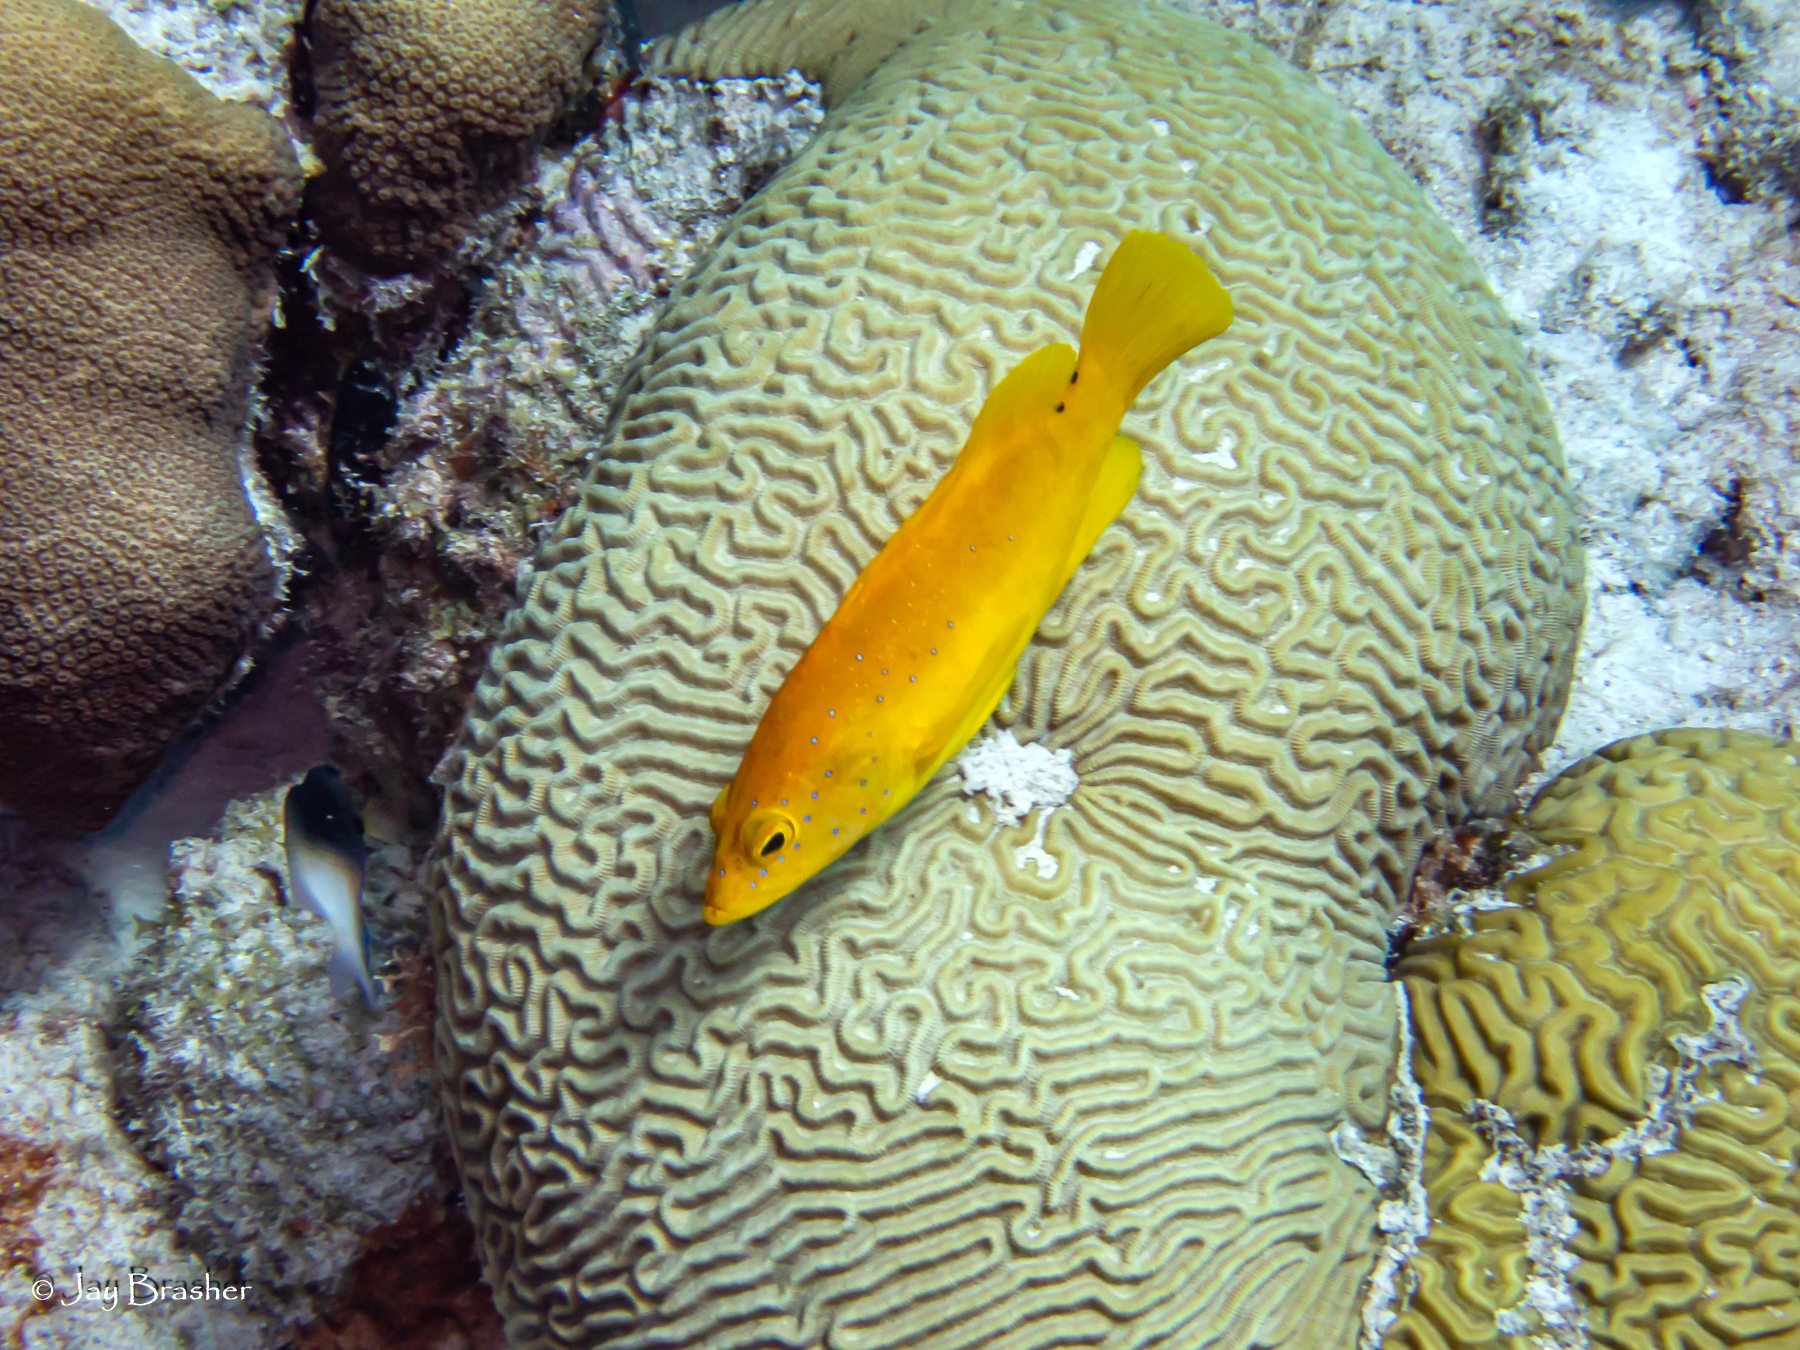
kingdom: Animalia
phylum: Cnidaria
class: Anthozoa
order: Scleractinia
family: Faviidae
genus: Pseudodiploria
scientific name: Pseudodiploria strigosa
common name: Symmetrical brain coral
